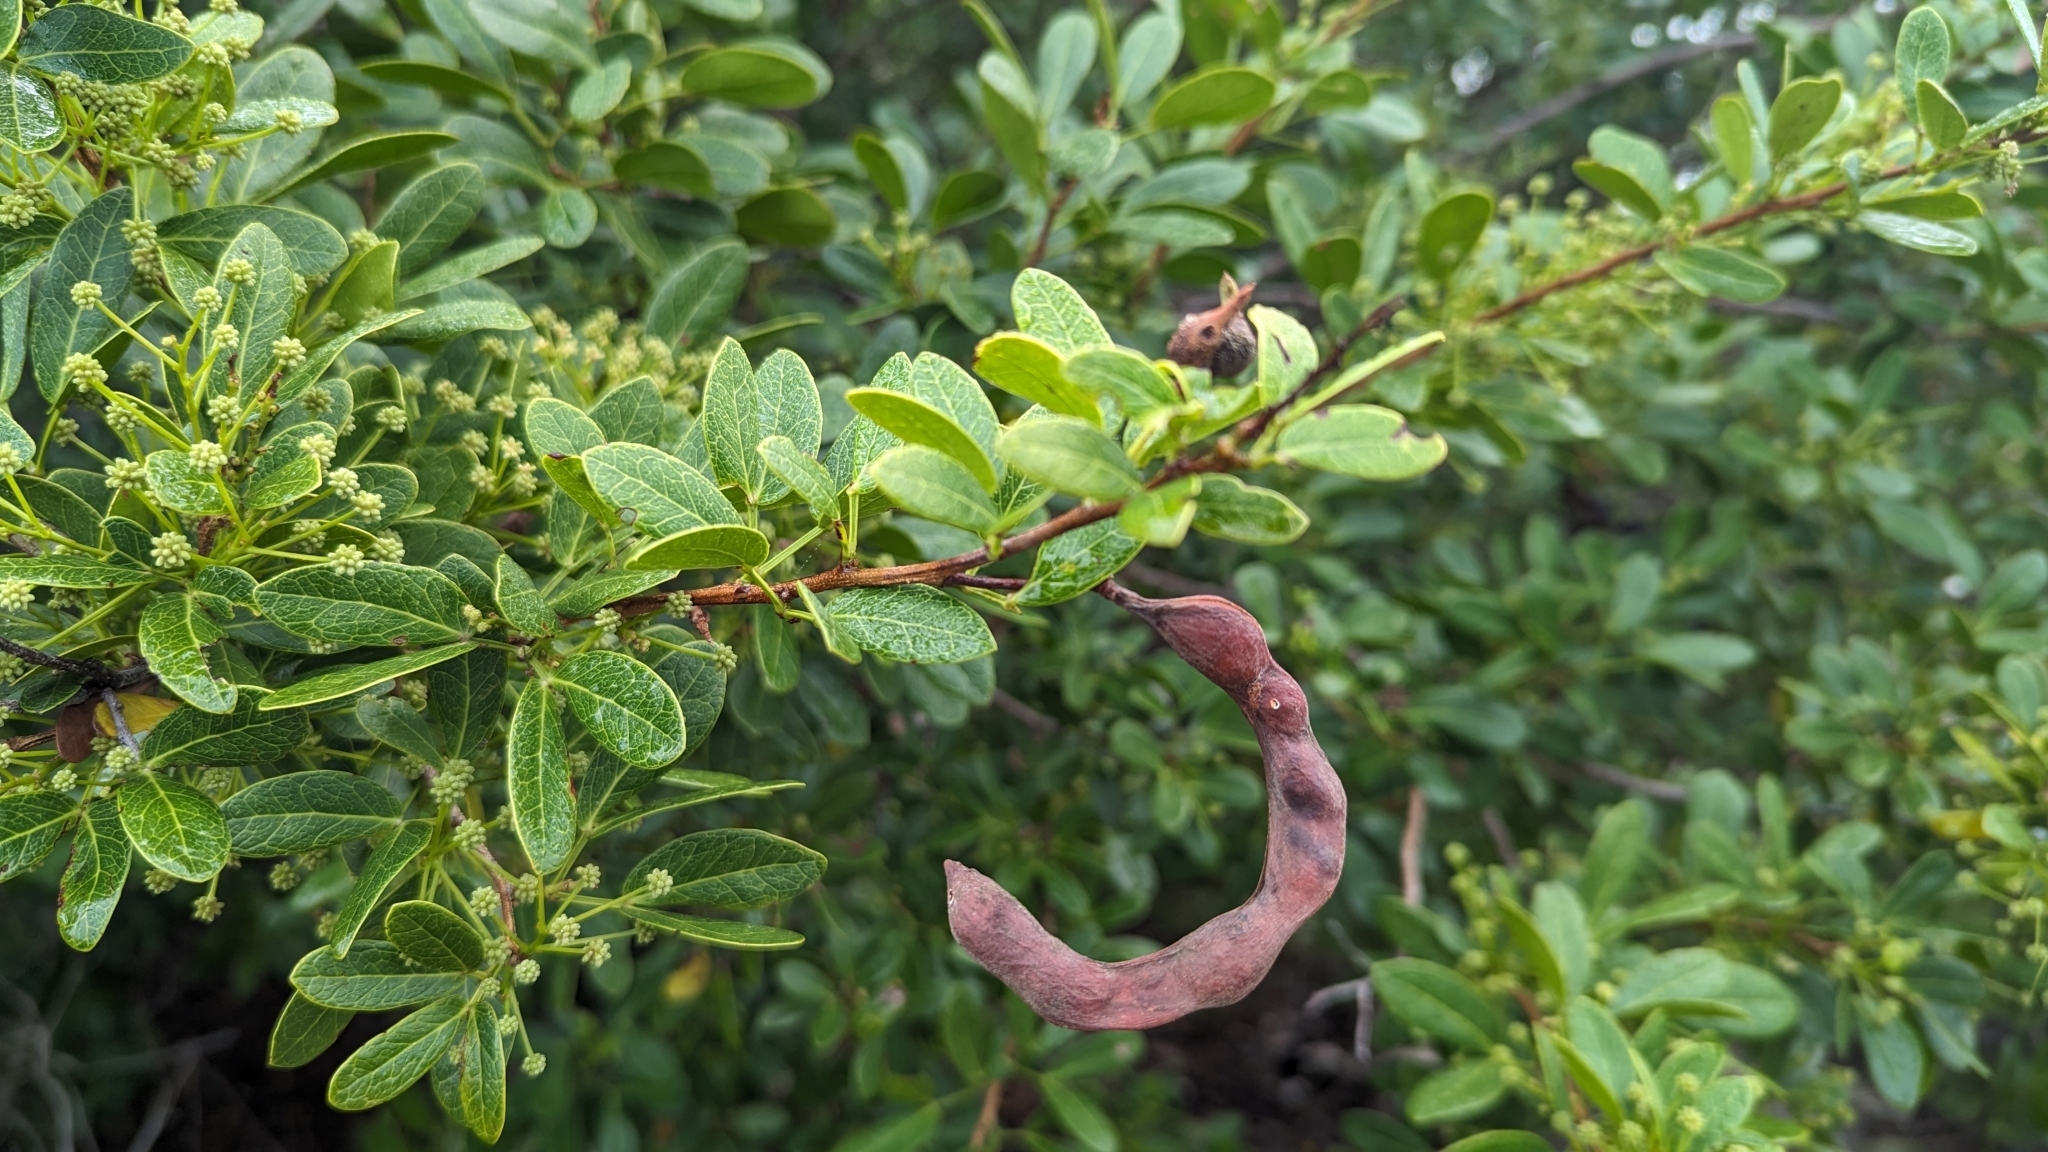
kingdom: Plantae
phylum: Tracheophyta
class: Magnoliopsida
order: Fabales
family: Fabaceae
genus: Pithecellobium
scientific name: Pithecellobium keyense
